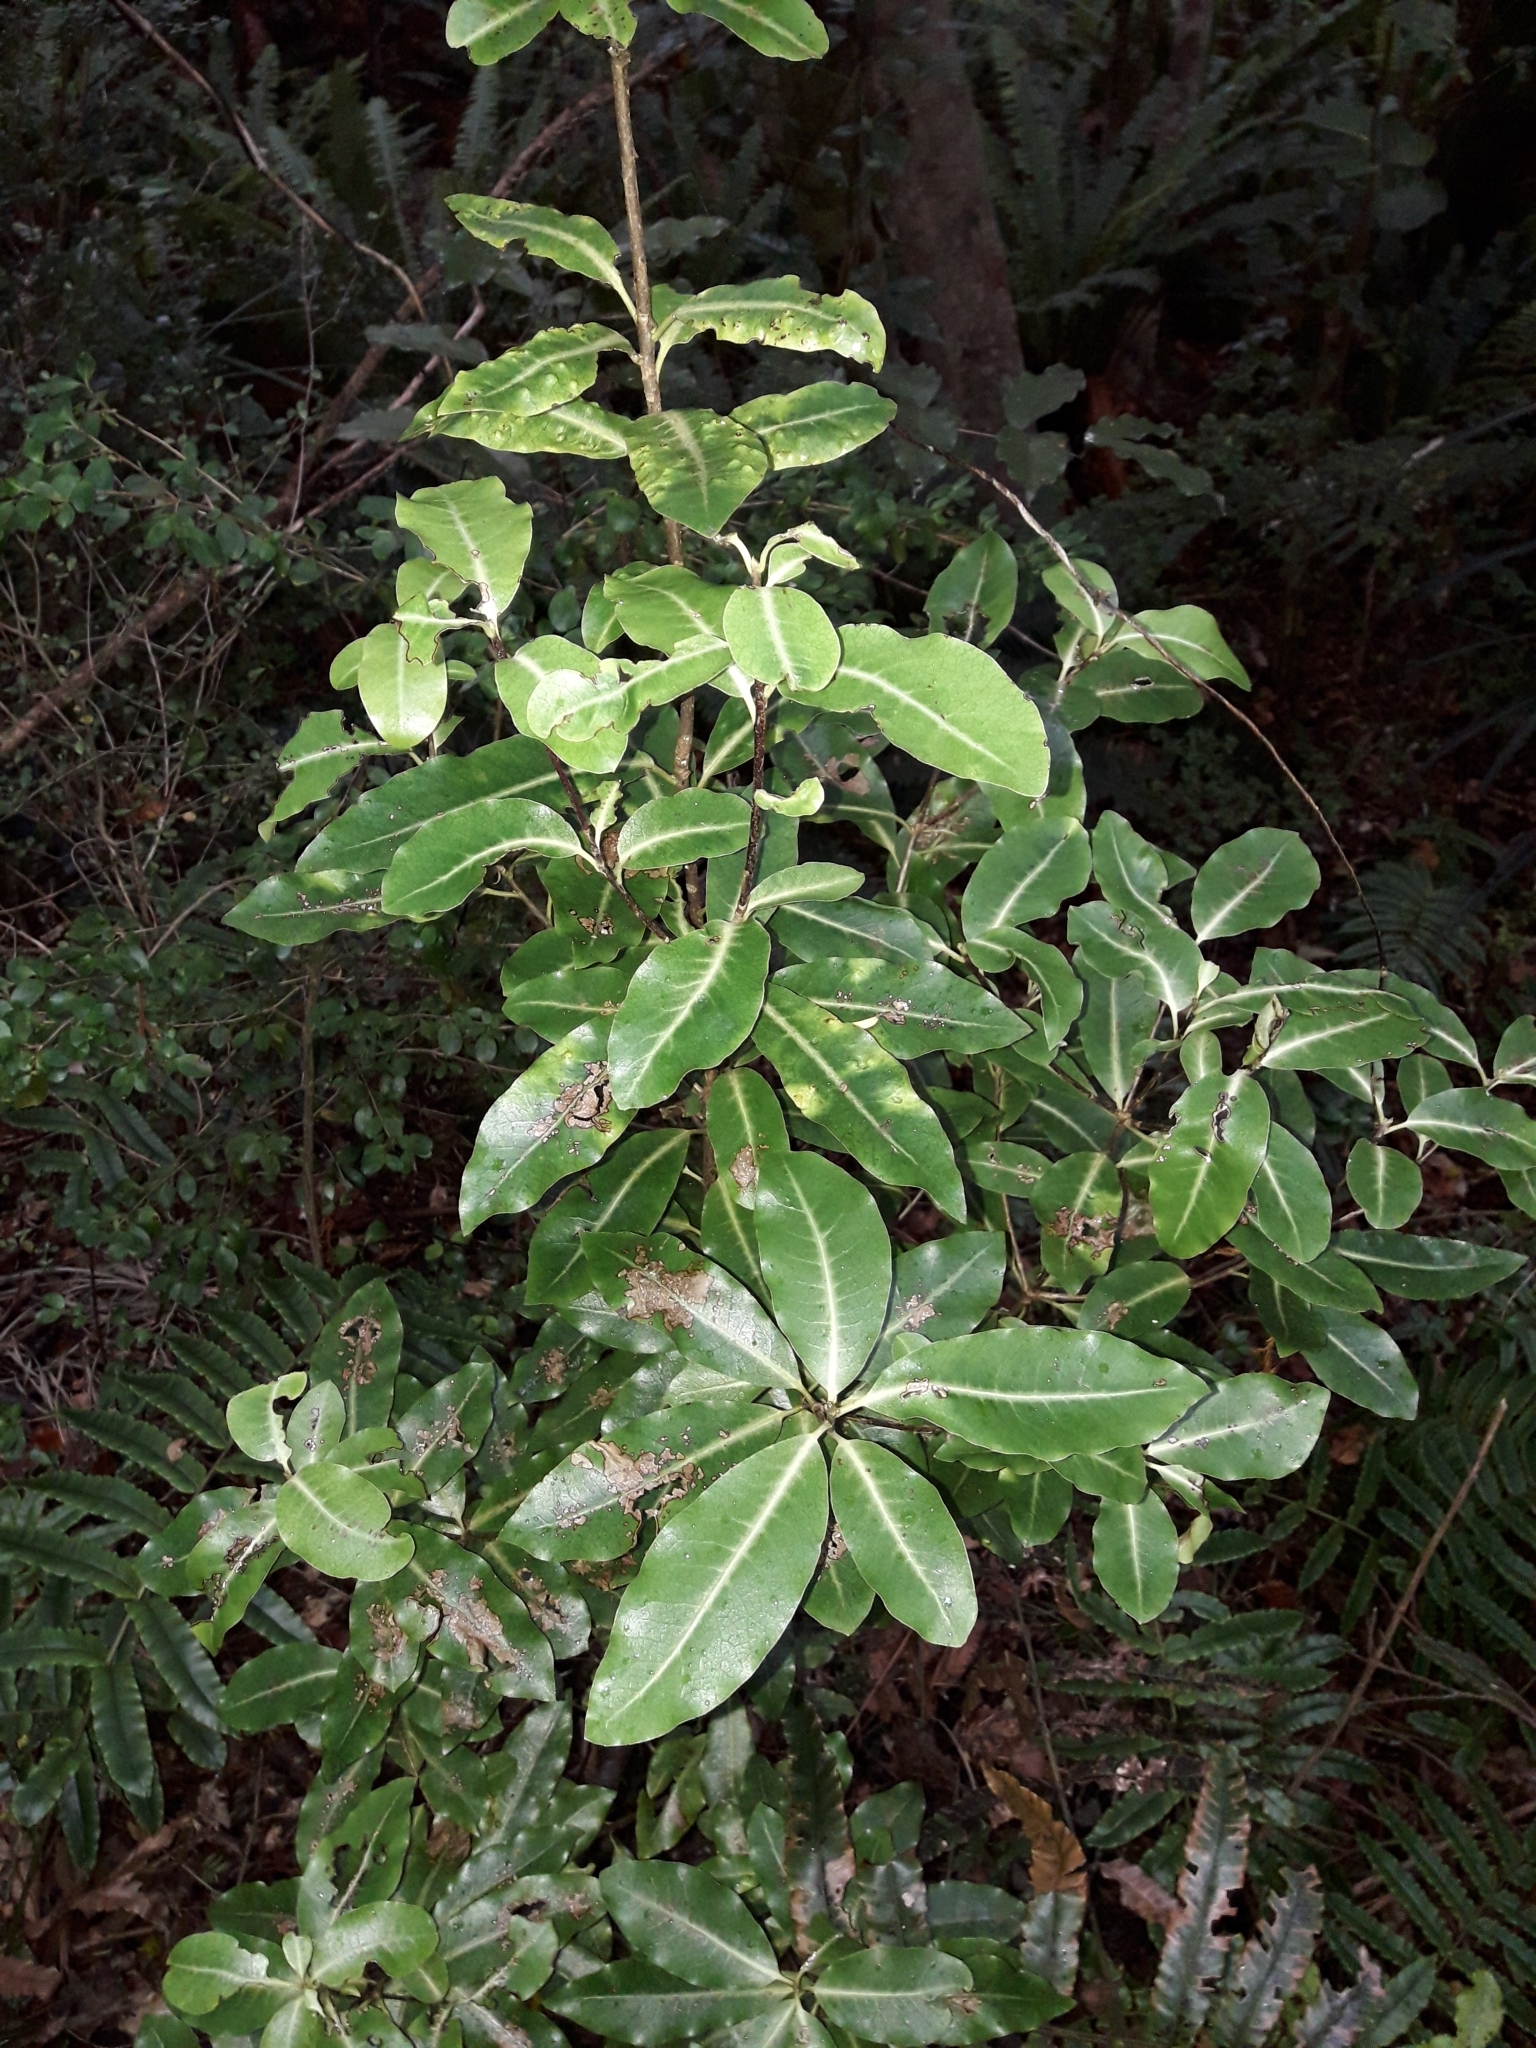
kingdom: Plantae
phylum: Tracheophyta
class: Magnoliopsida
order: Apiales
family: Pittosporaceae
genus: Pittosporum
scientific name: Pittosporum tenuifolium
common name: Kohuhu
